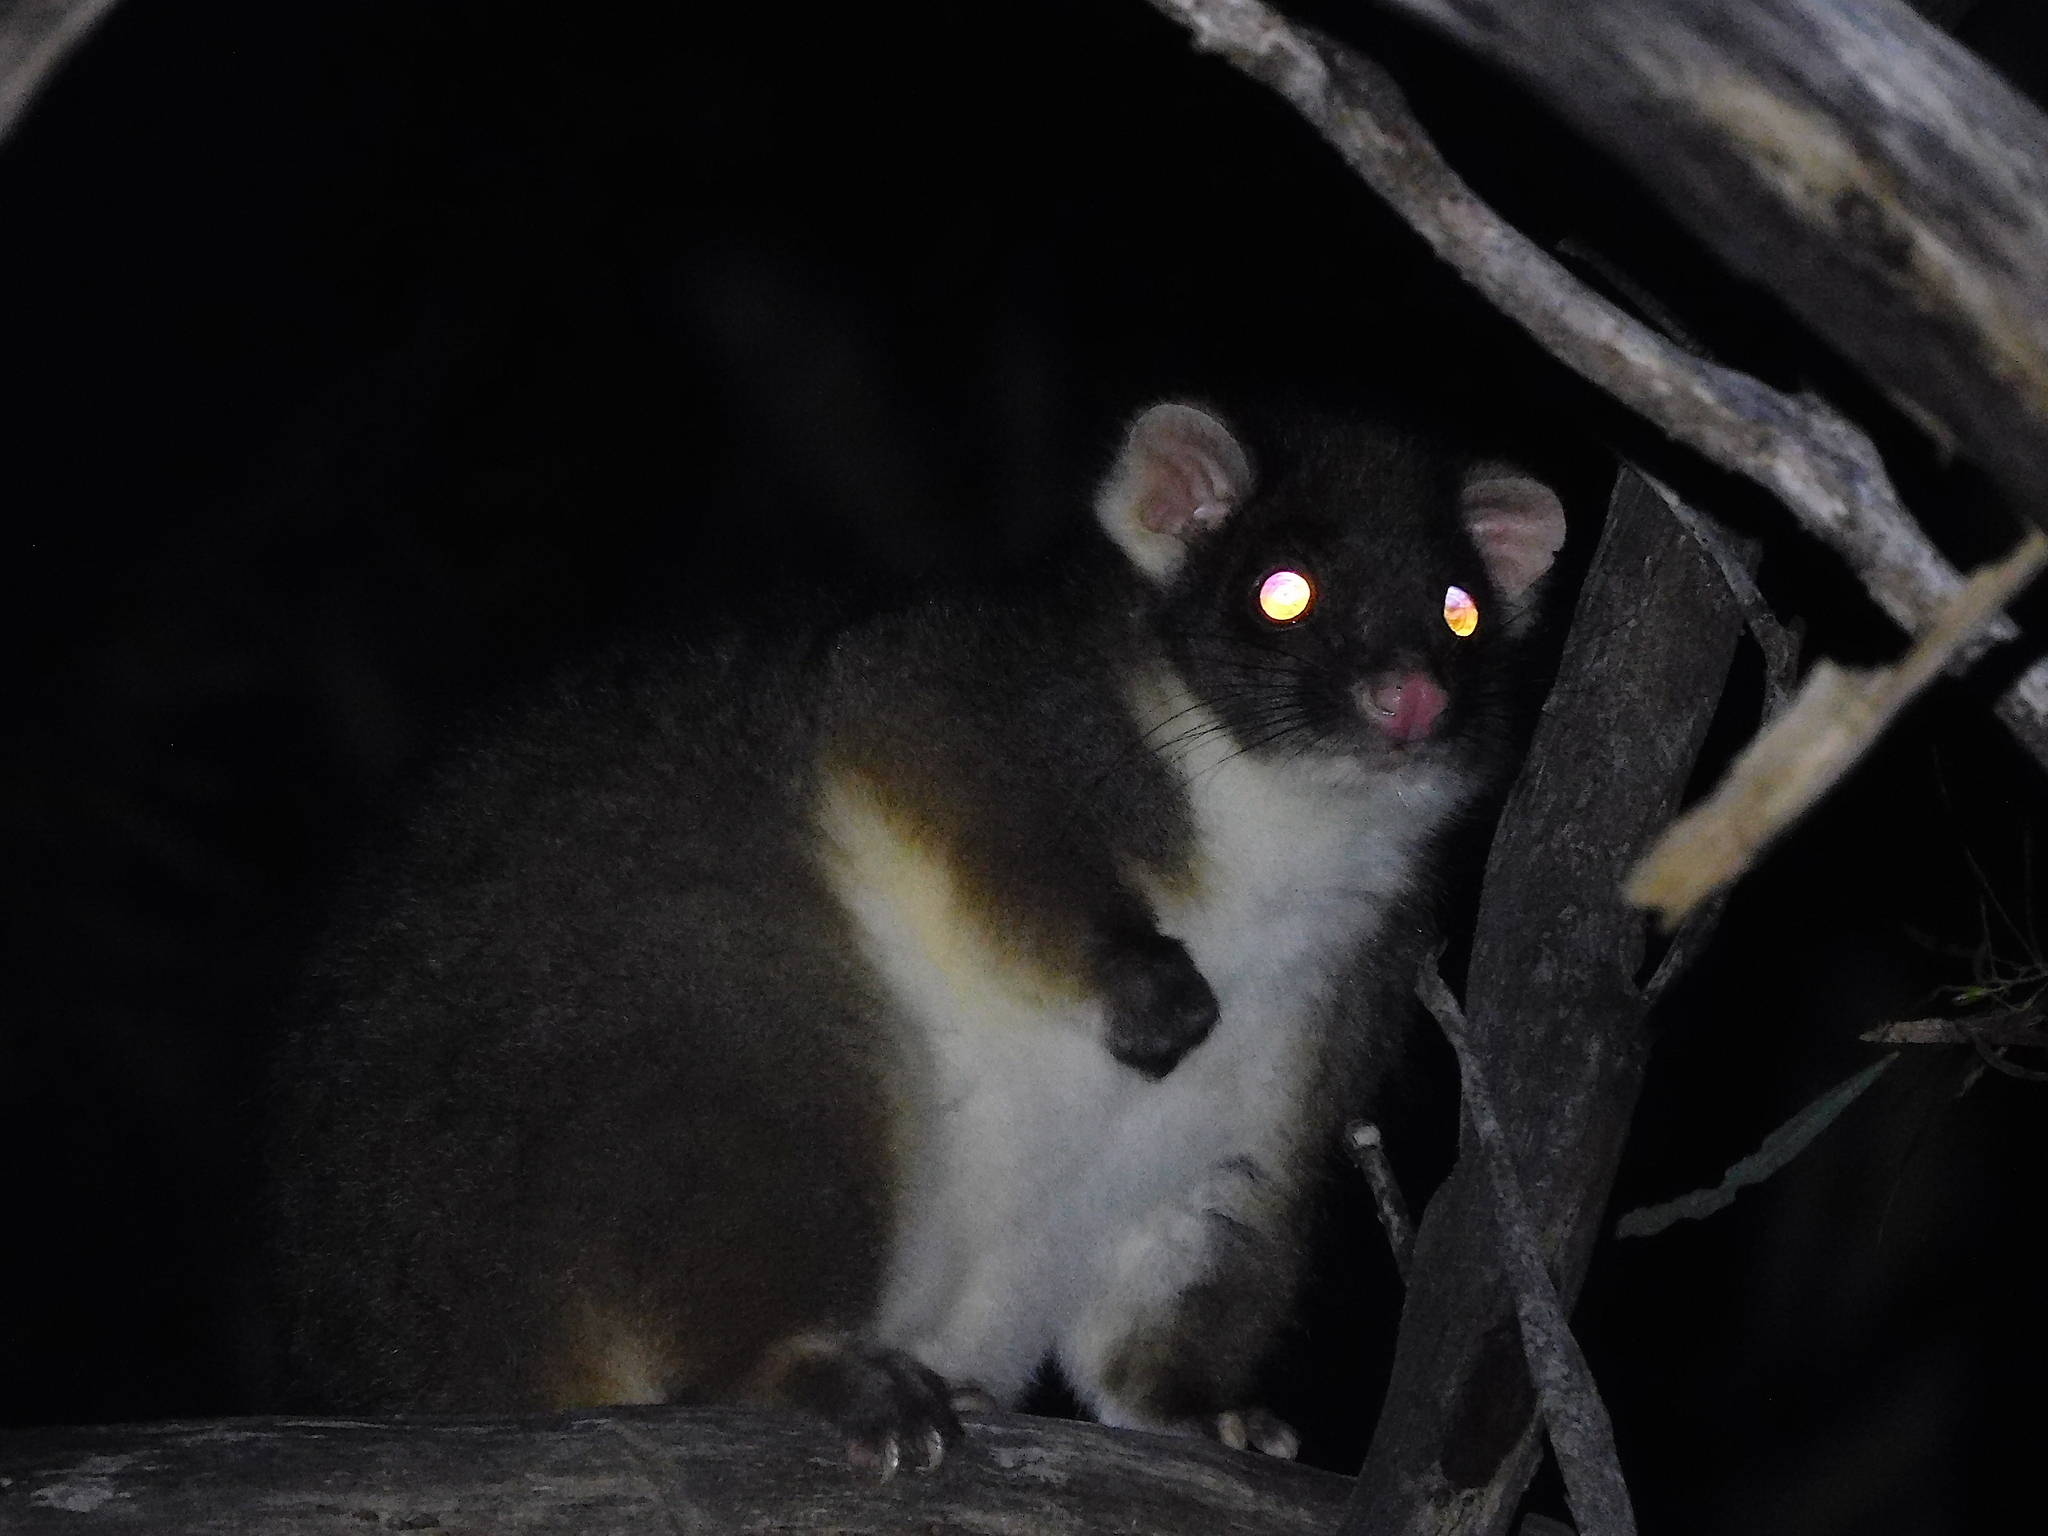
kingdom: Animalia
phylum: Chordata
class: Mammalia
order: Diprotodontia
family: Pseudocheiridae
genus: Pseudocheirus
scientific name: Pseudocheirus peregrinus
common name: Common ringtail possum
